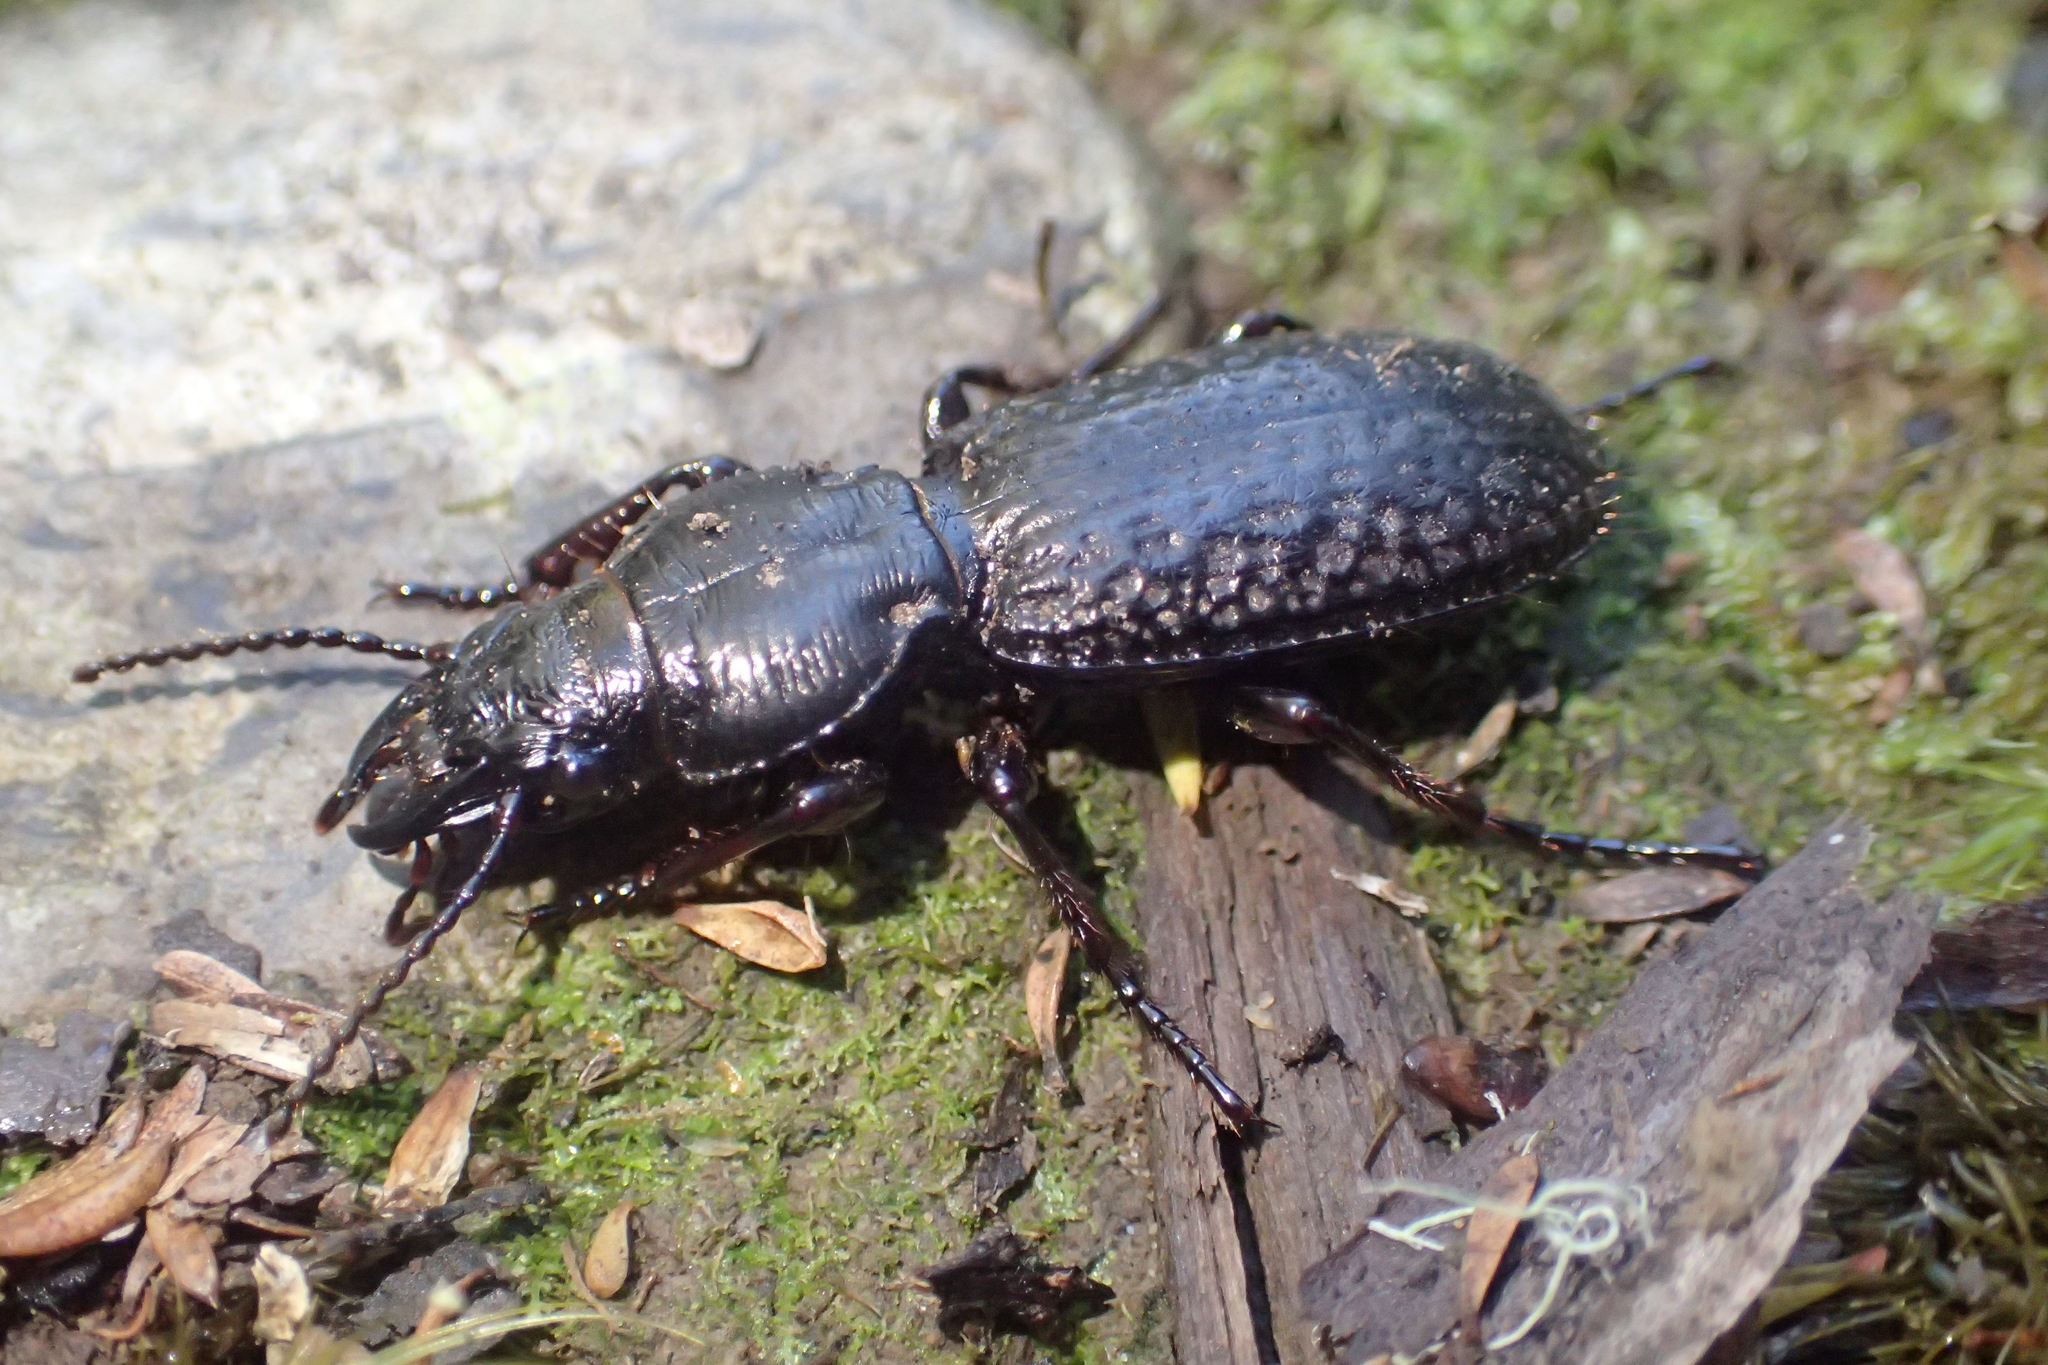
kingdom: Animalia
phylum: Arthropoda
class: Insecta
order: Coleoptera
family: Carabidae
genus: Mecodema
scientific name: Mecodema crenicolle
